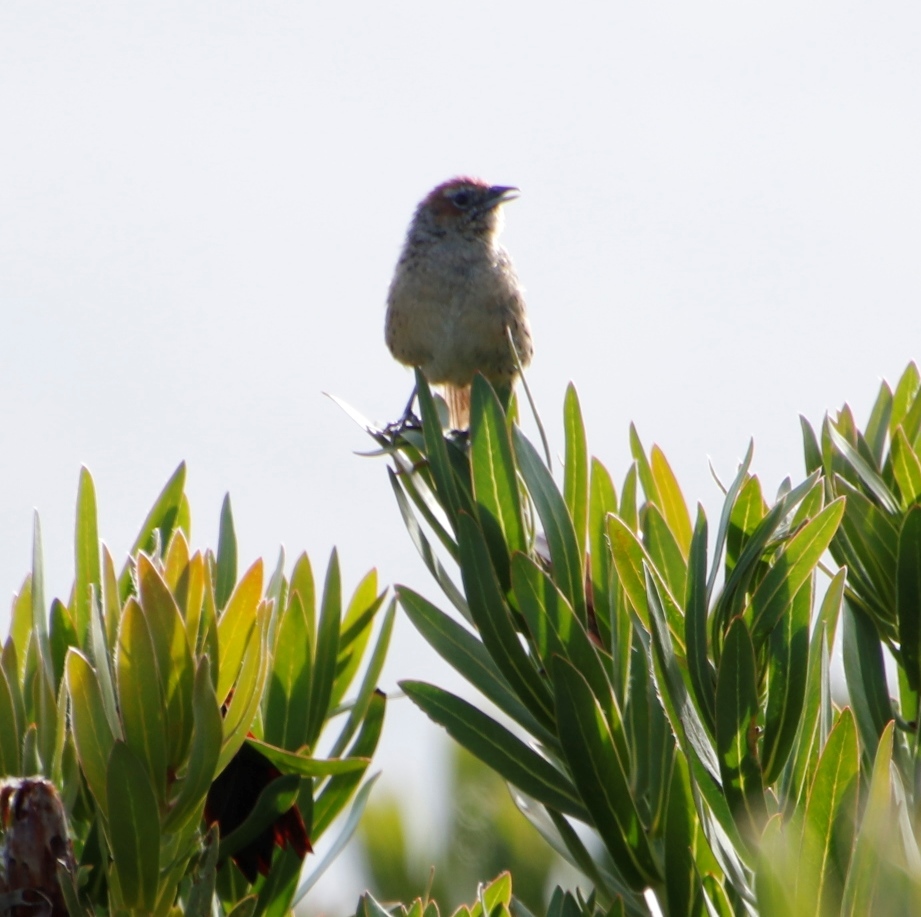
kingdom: Animalia
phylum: Chordata
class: Aves
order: Passeriformes
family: Macrosphenidae
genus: Sphenoeacus
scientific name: Sphenoeacus afer
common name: Cape grassbird
